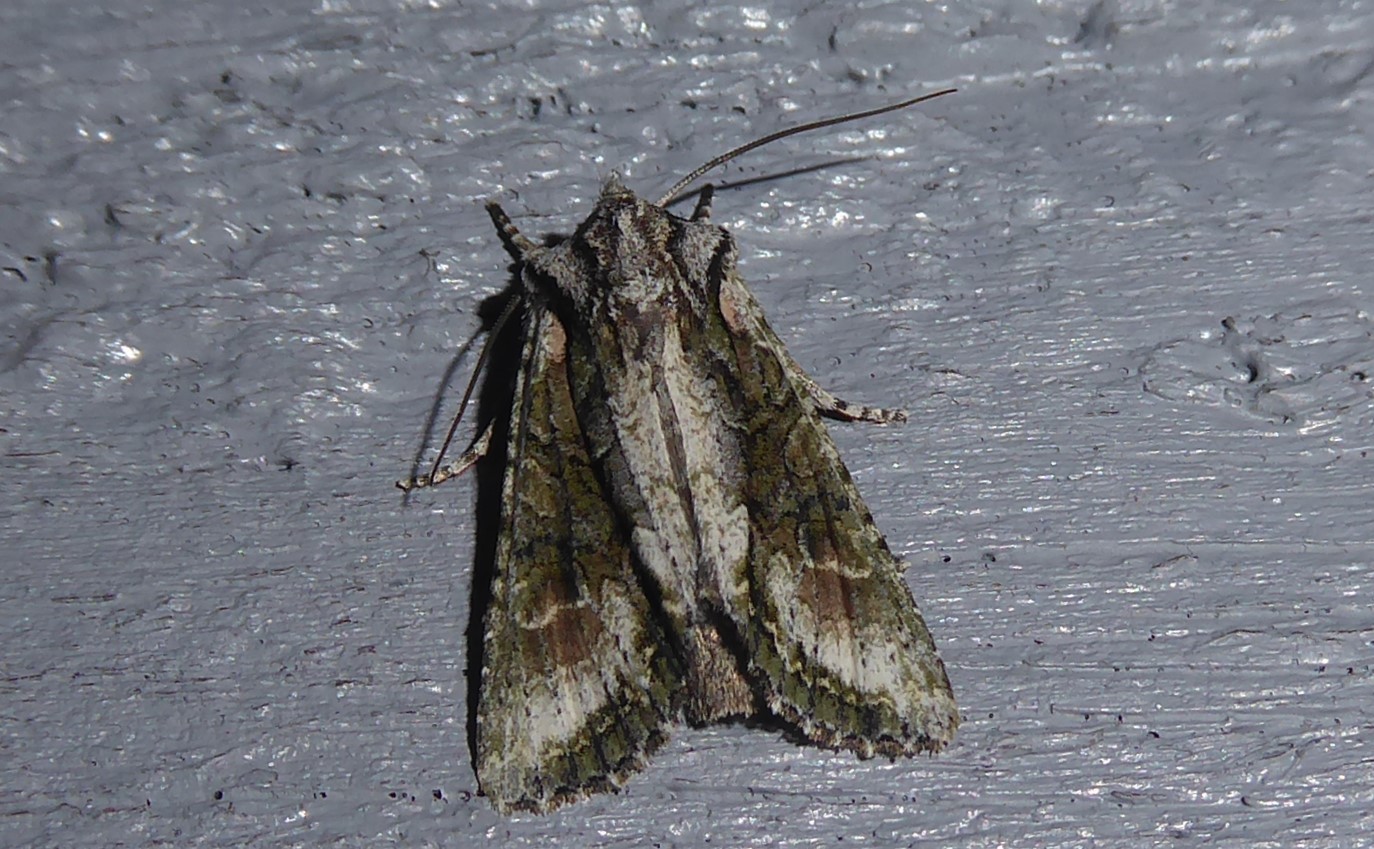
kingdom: Animalia
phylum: Arthropoda
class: Insecta
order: Lepidoptera
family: Noctuidae
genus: Ichneutica
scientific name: Ichneutica mutans
